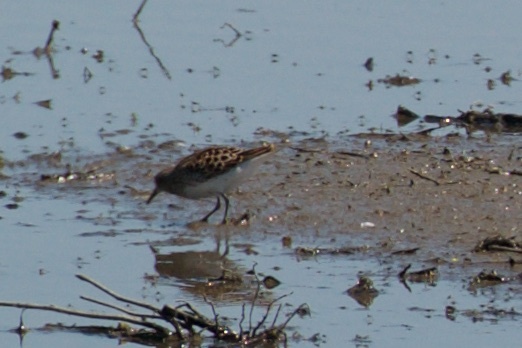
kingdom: Animalia
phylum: Chordata
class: Aves
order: Charadriiformes
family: Scolopacidae
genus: Calidris
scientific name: Calidris minutilla
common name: Least sandpiper
